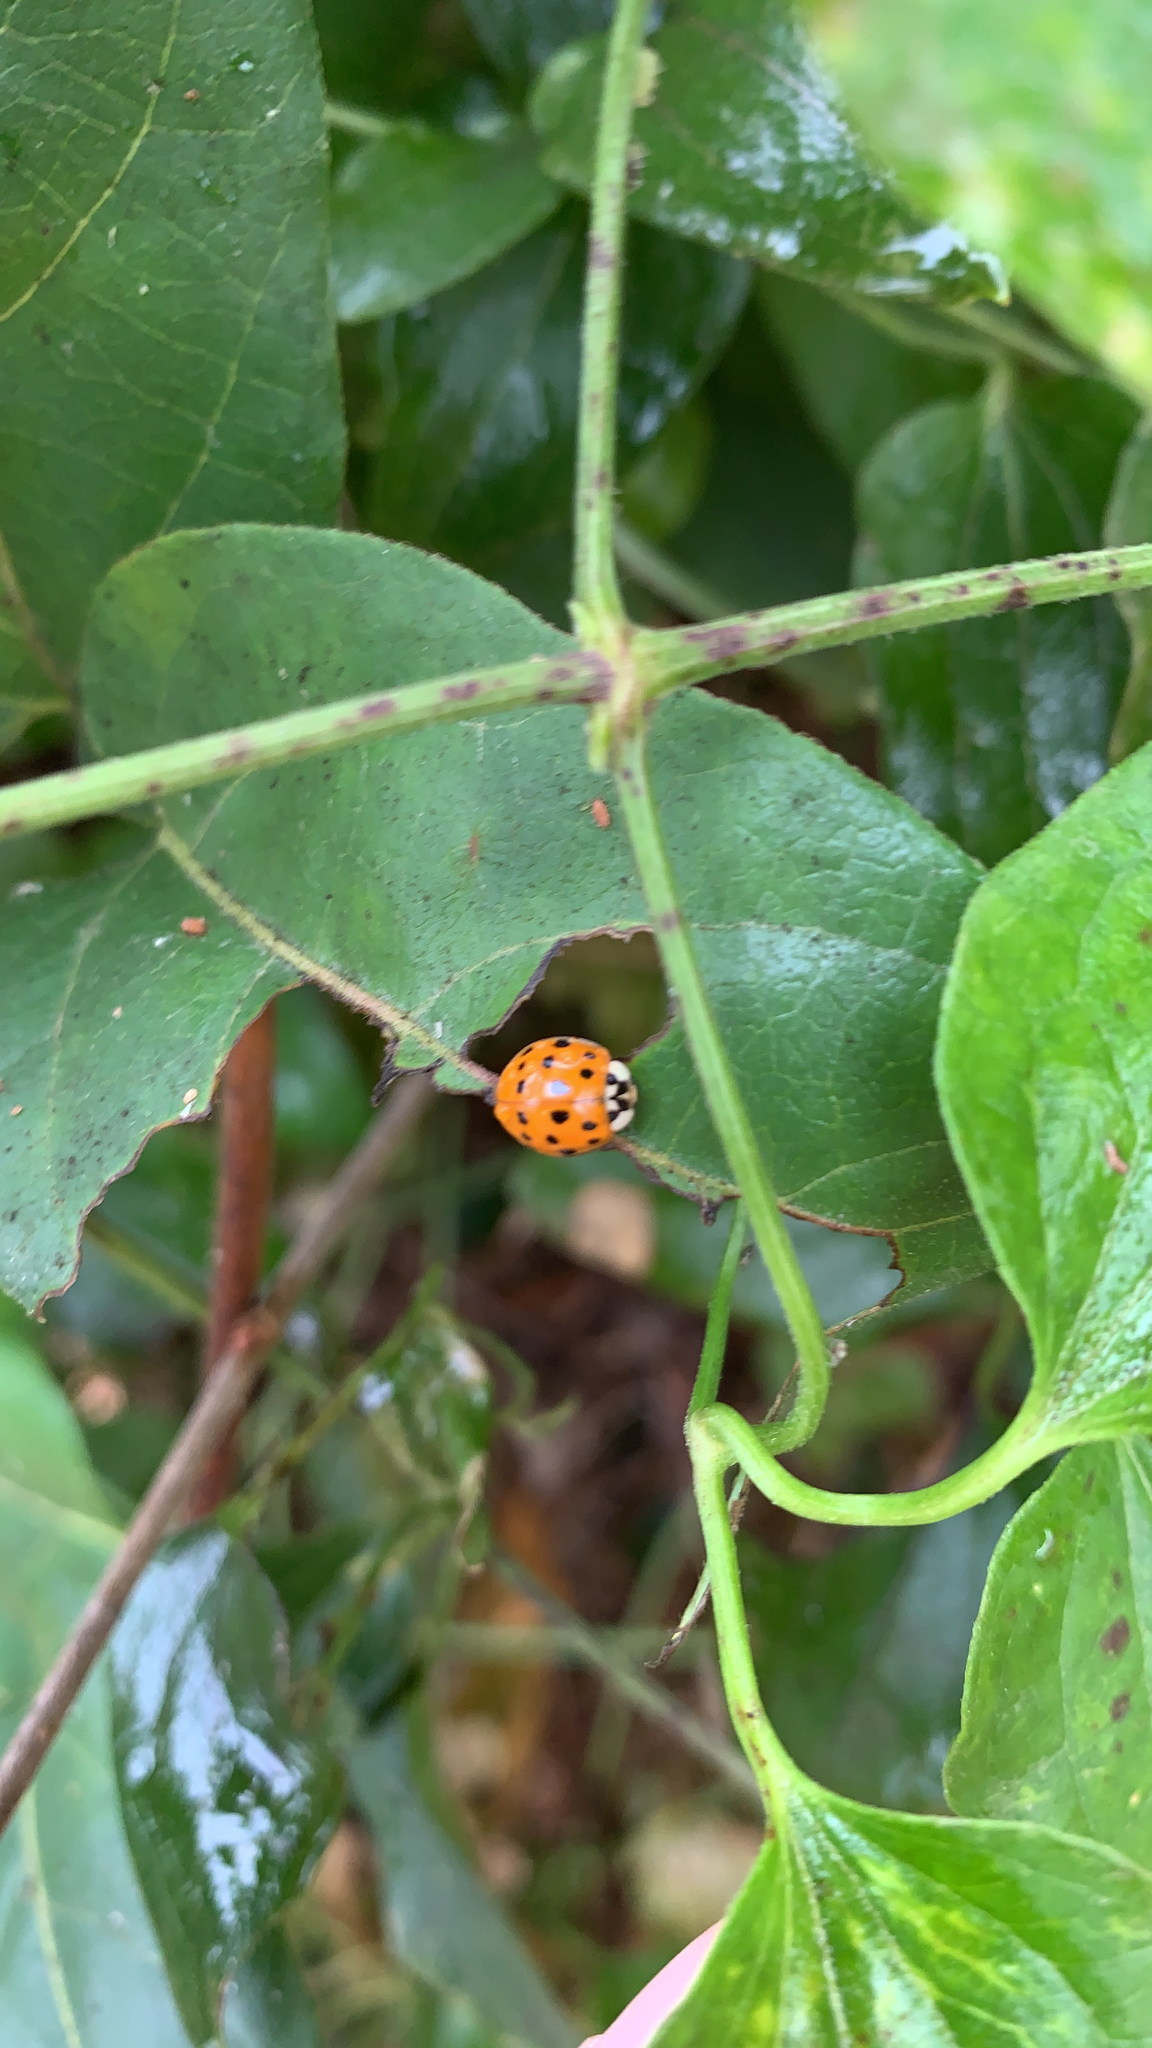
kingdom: Animalia
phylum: Arthropoda
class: Insecta
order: Coleoptera
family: Coccinellidae
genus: Harmonia
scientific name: Harmonia axyridis
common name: Harlequin ladybird
